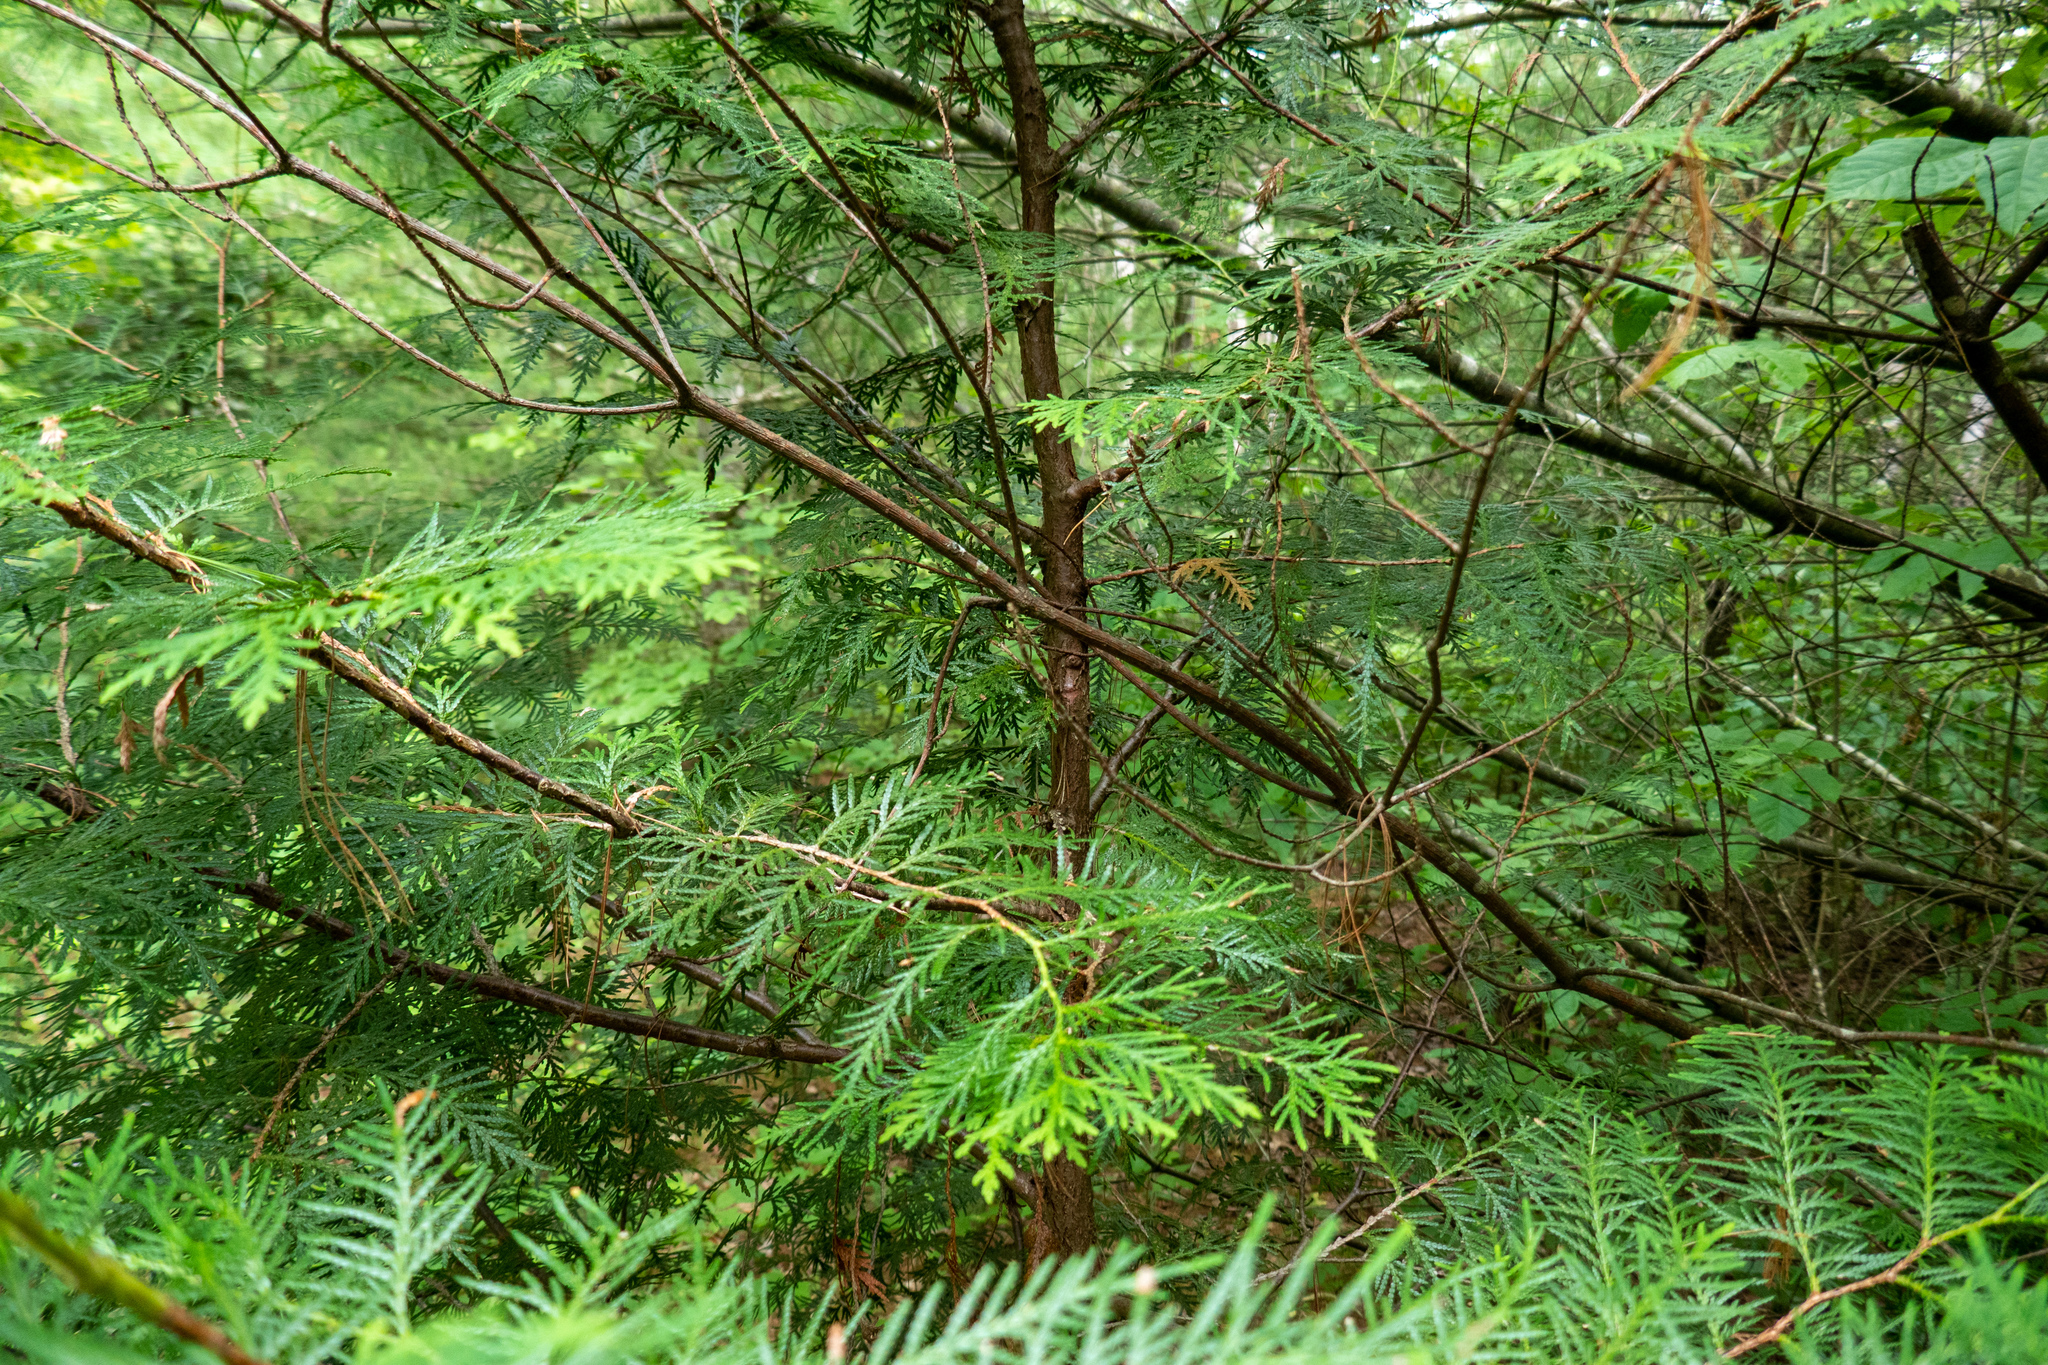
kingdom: Plantae
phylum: Tracheophyta
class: Pinopsida
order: Pinales
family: Cupressaceae
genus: Thuja
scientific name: Thuja occidentalis
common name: Northern white-cedar
